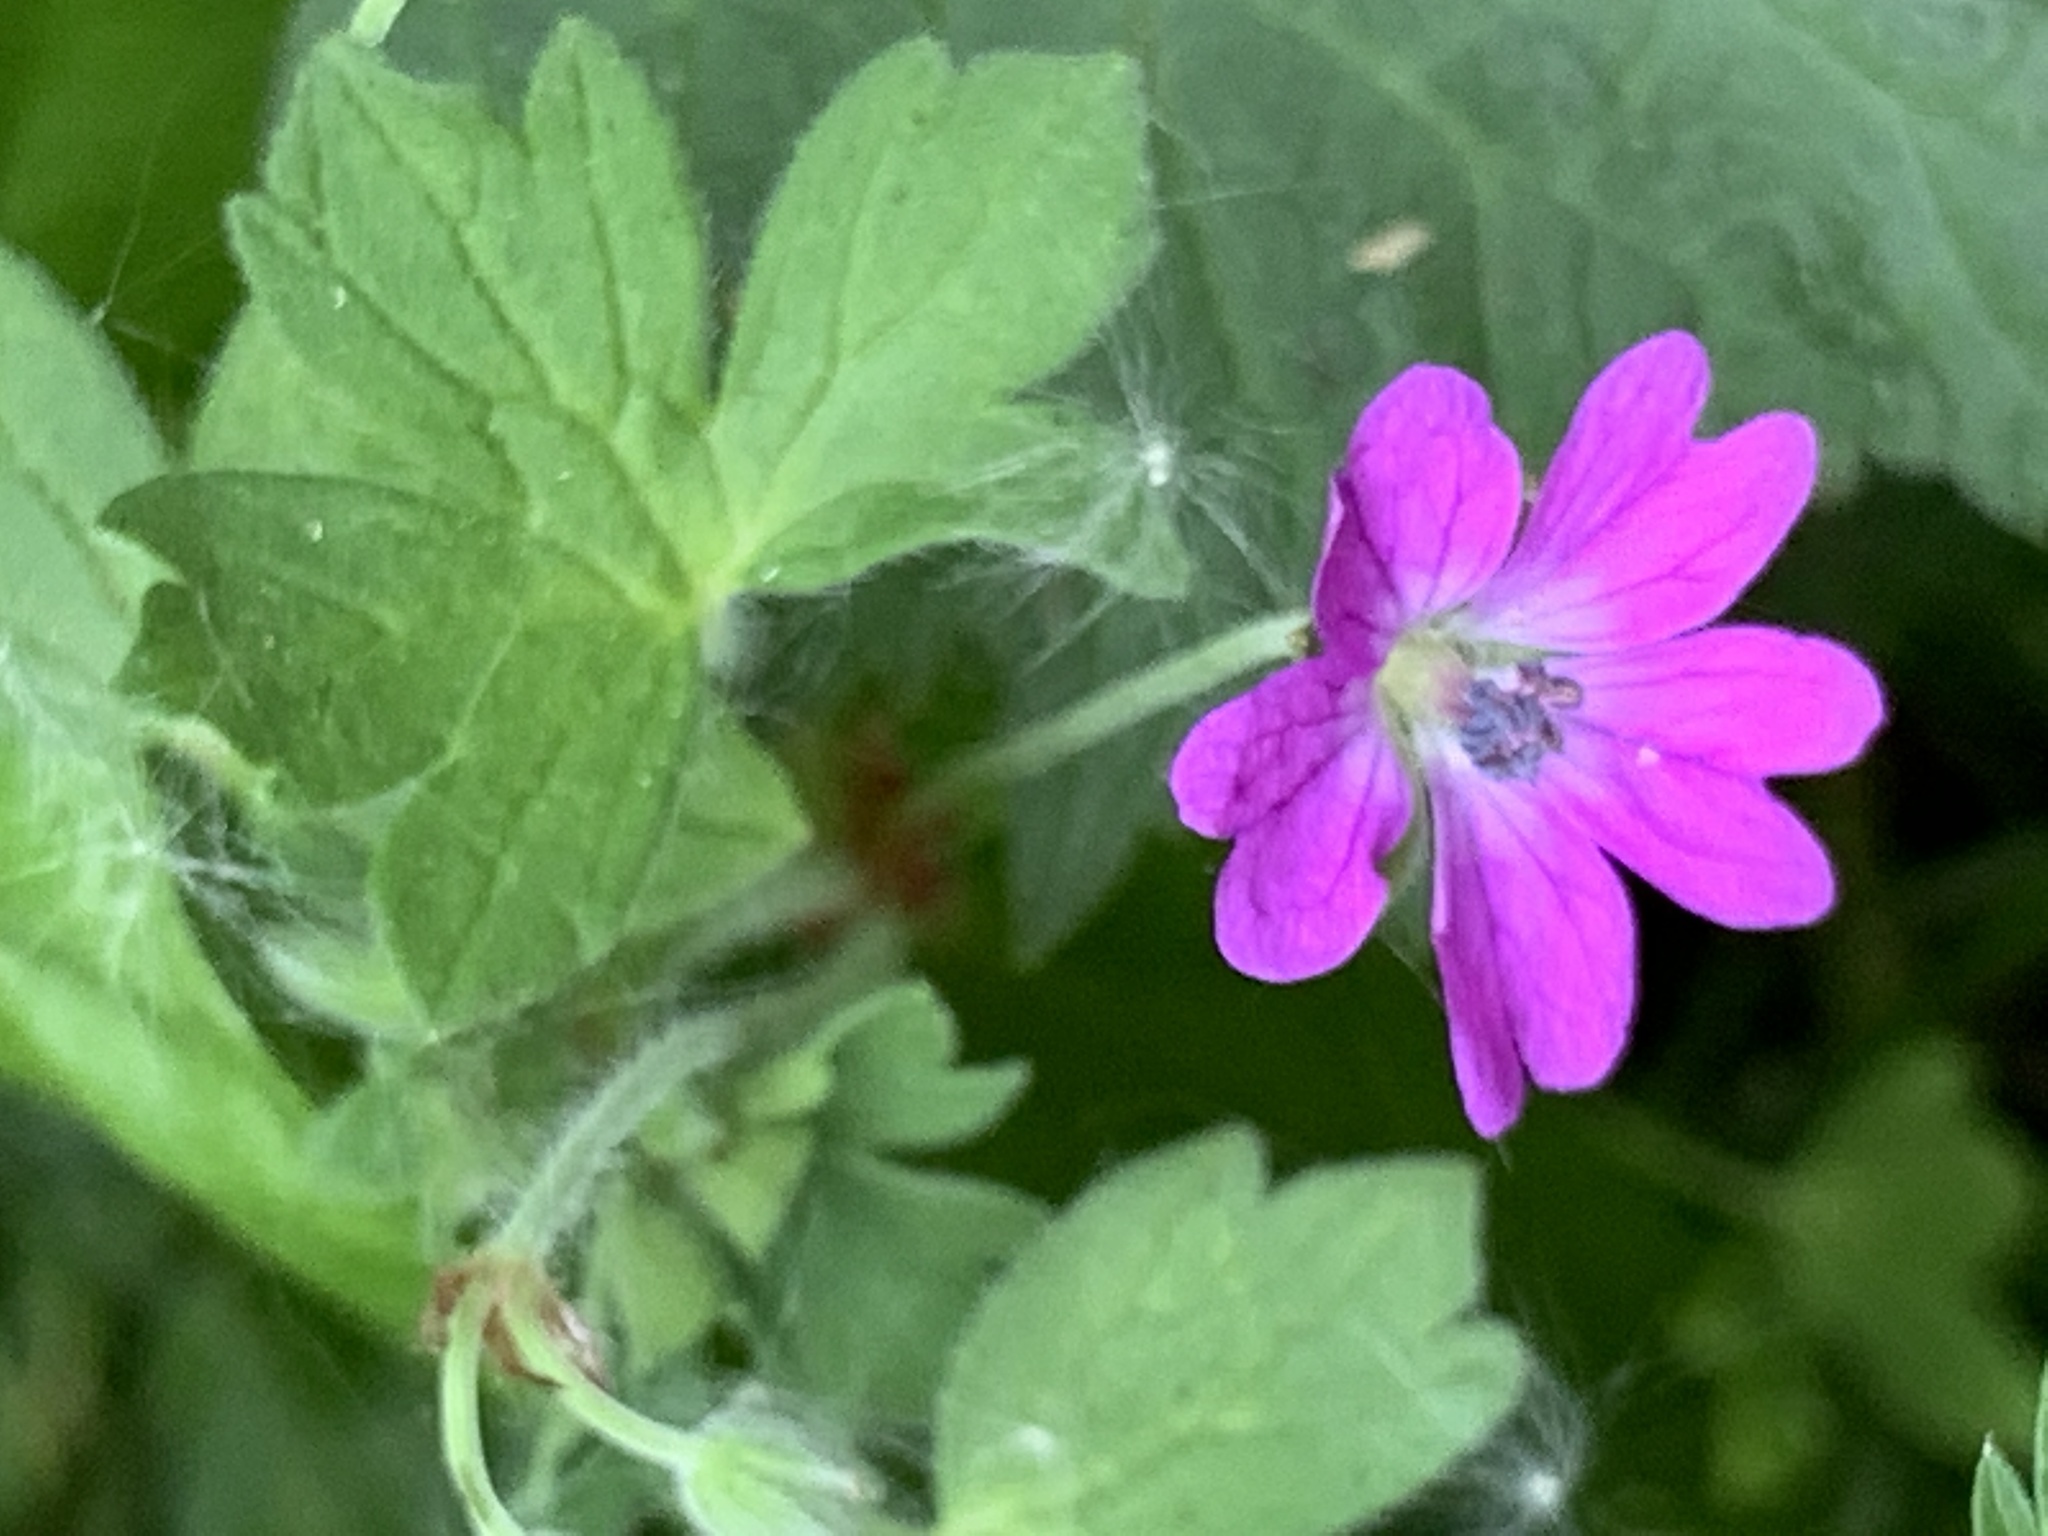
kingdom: Plantae
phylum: Tracheophyta
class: Magnoliopsida
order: Geraniales
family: Geraniaceae
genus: Geranium
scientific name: Geranium pyrenaicum
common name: Hedgerow crane's-bill
